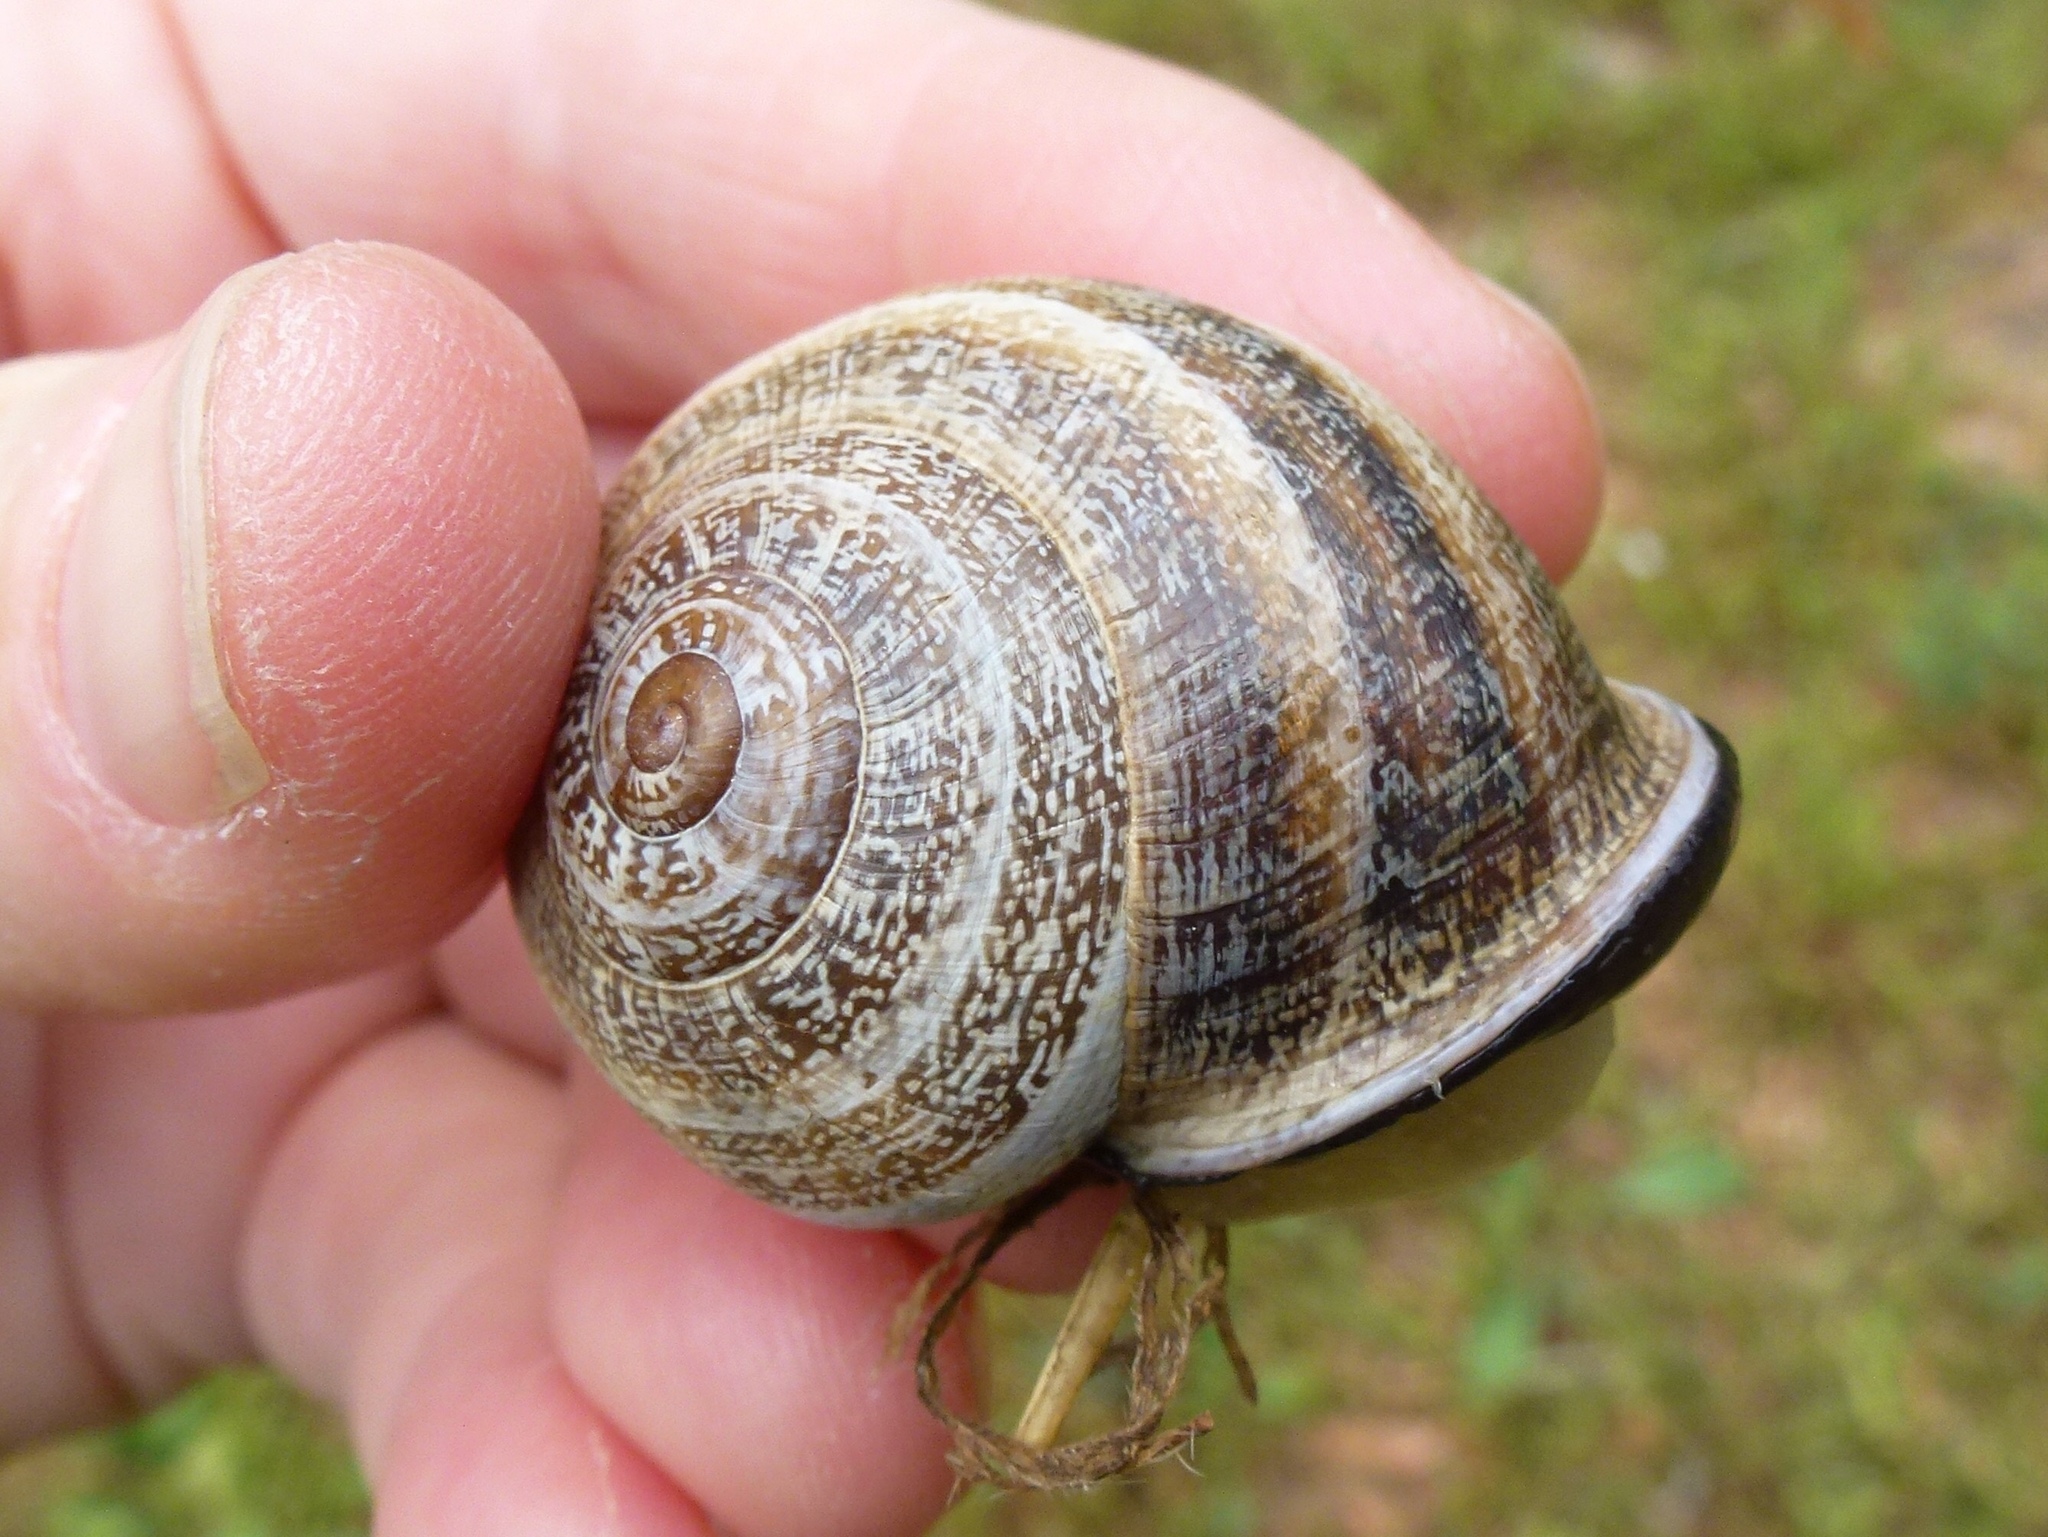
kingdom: Animalia
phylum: Mollusca
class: Gastropoda
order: Stylommatophora
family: Helicidae
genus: Otala
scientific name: Otala lactea
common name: Milk snail
